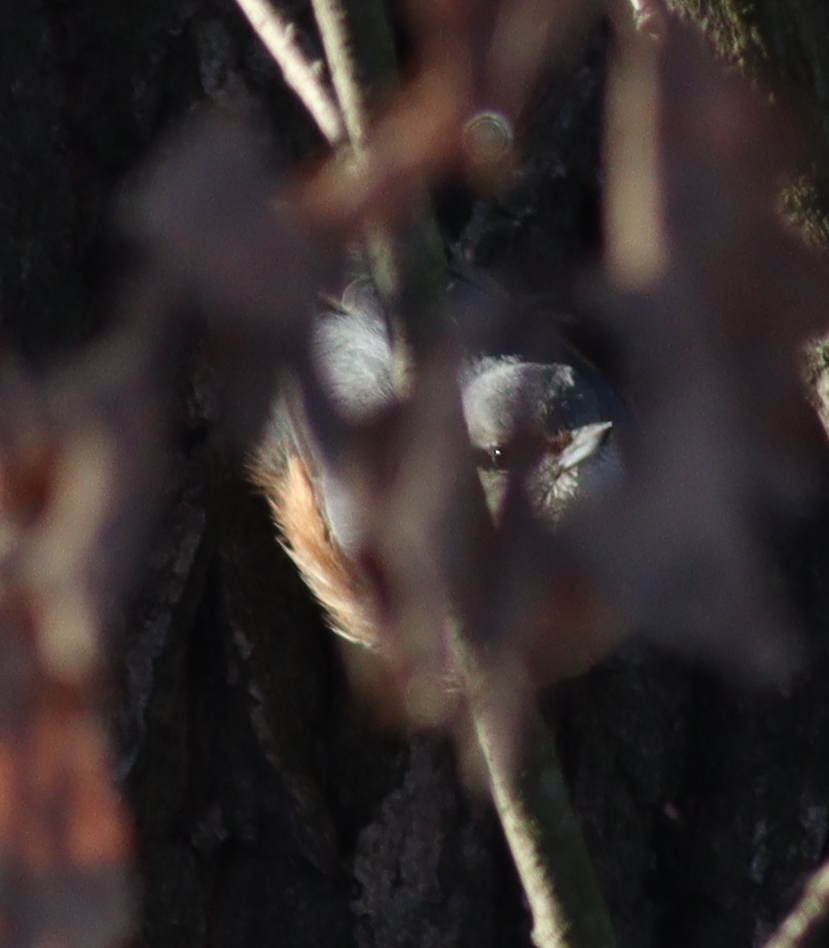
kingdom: Animalia
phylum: Chordata
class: Aves
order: Passeriformes
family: Sittidae
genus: Sitta
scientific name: Sitta europaea
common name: Eurasian nuthatch
